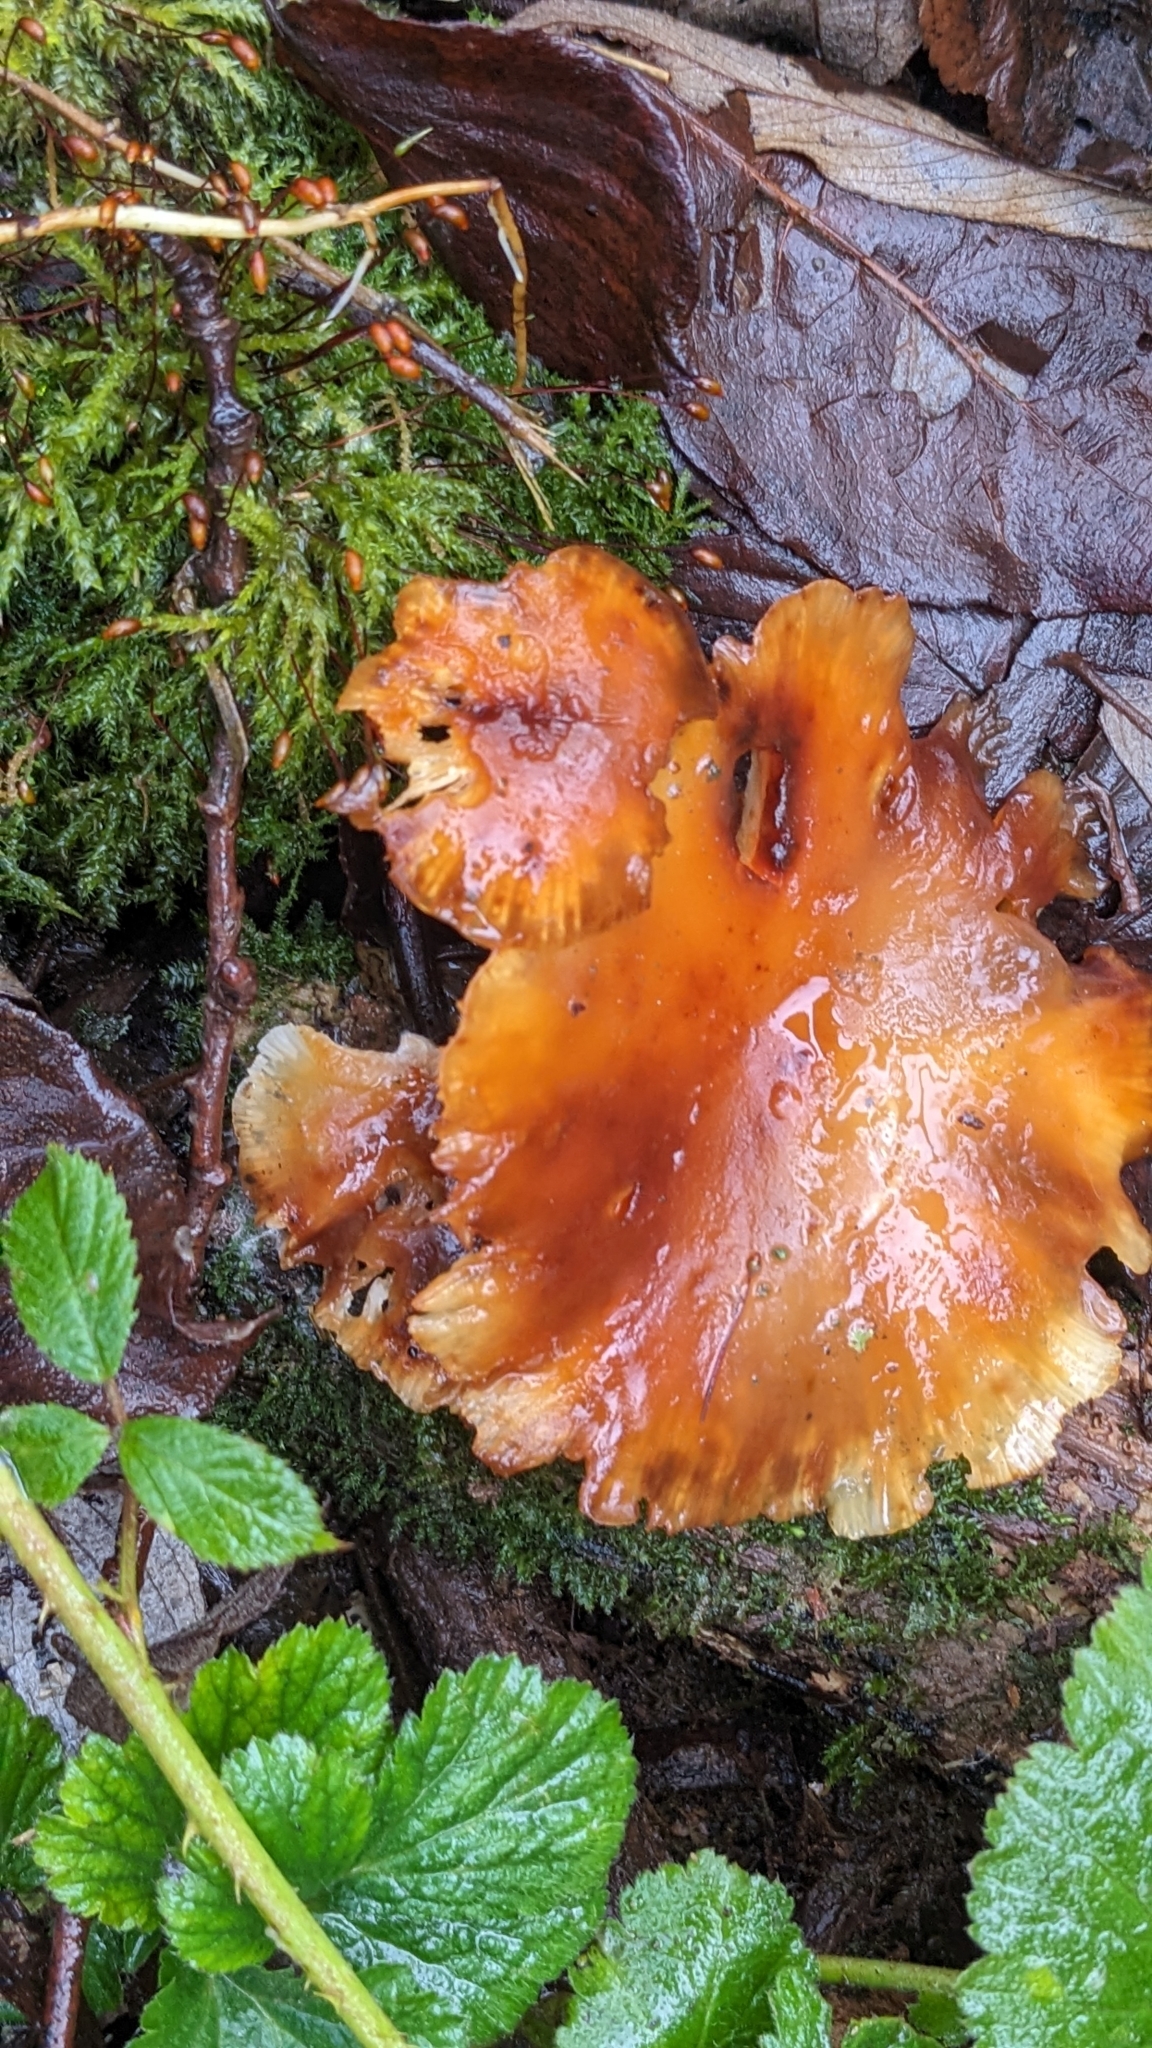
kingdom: Fungi
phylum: Basidiomycota
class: Agaricomycetes
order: Agaricales
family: Physalacriaceae
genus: Flammulina
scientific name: Flammulina
